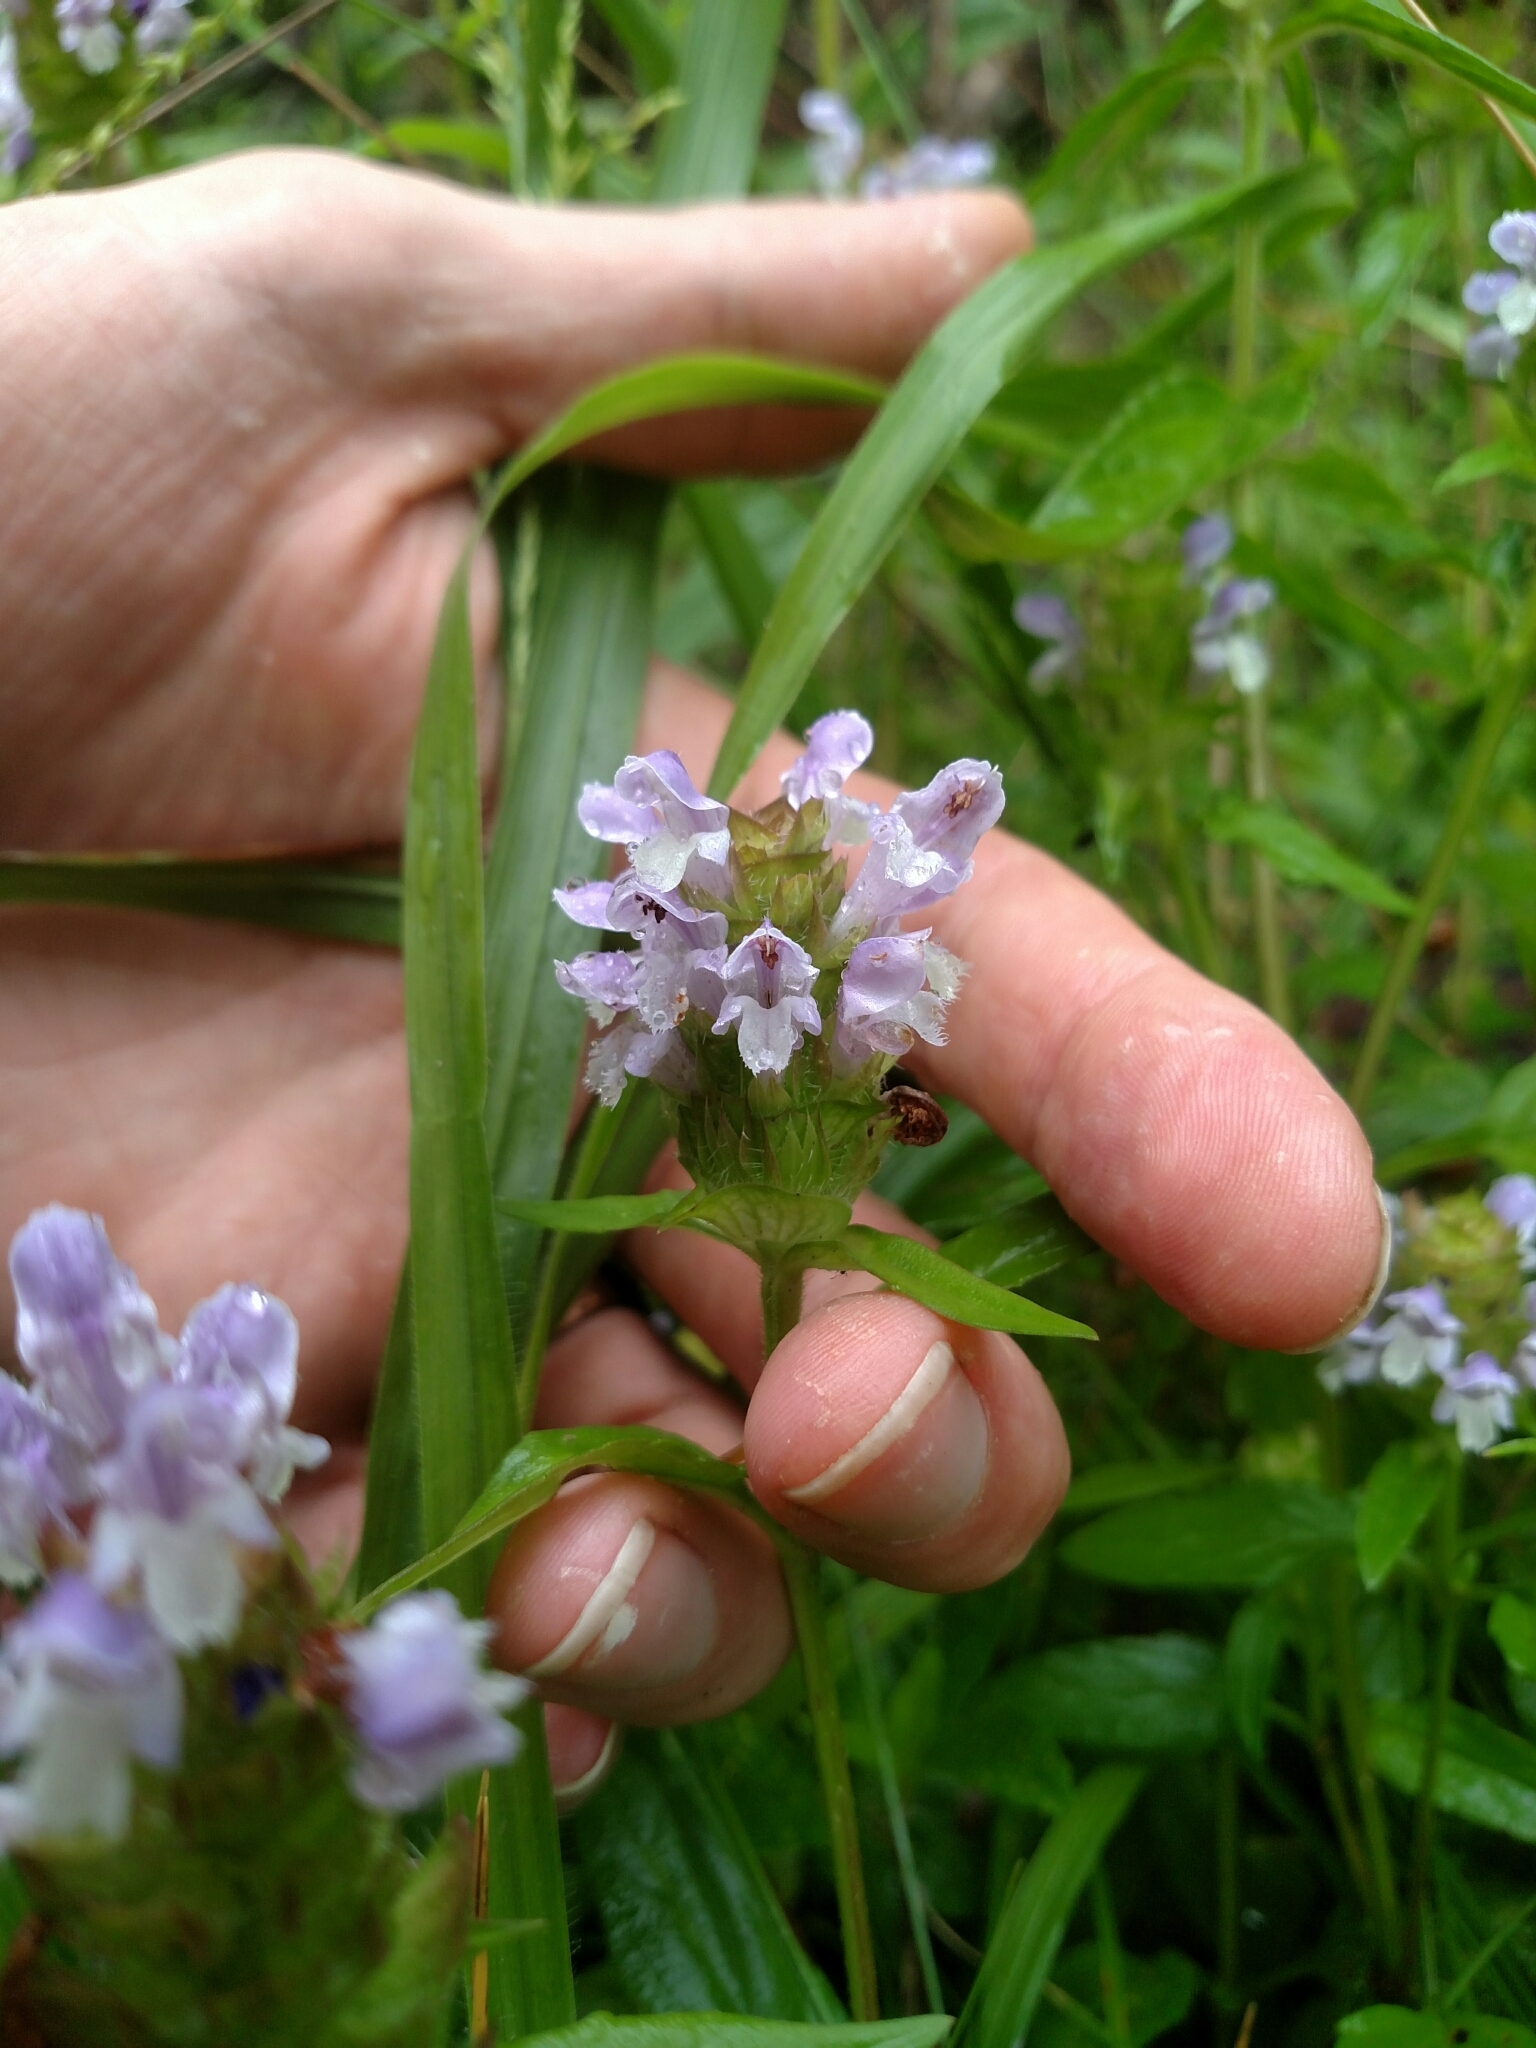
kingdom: Plantae
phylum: Tracheophyta
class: Magnoliopsida
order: Lamiales
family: Lamiaceae
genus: Prunella
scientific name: Prunella vulgaris
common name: Heal-all
